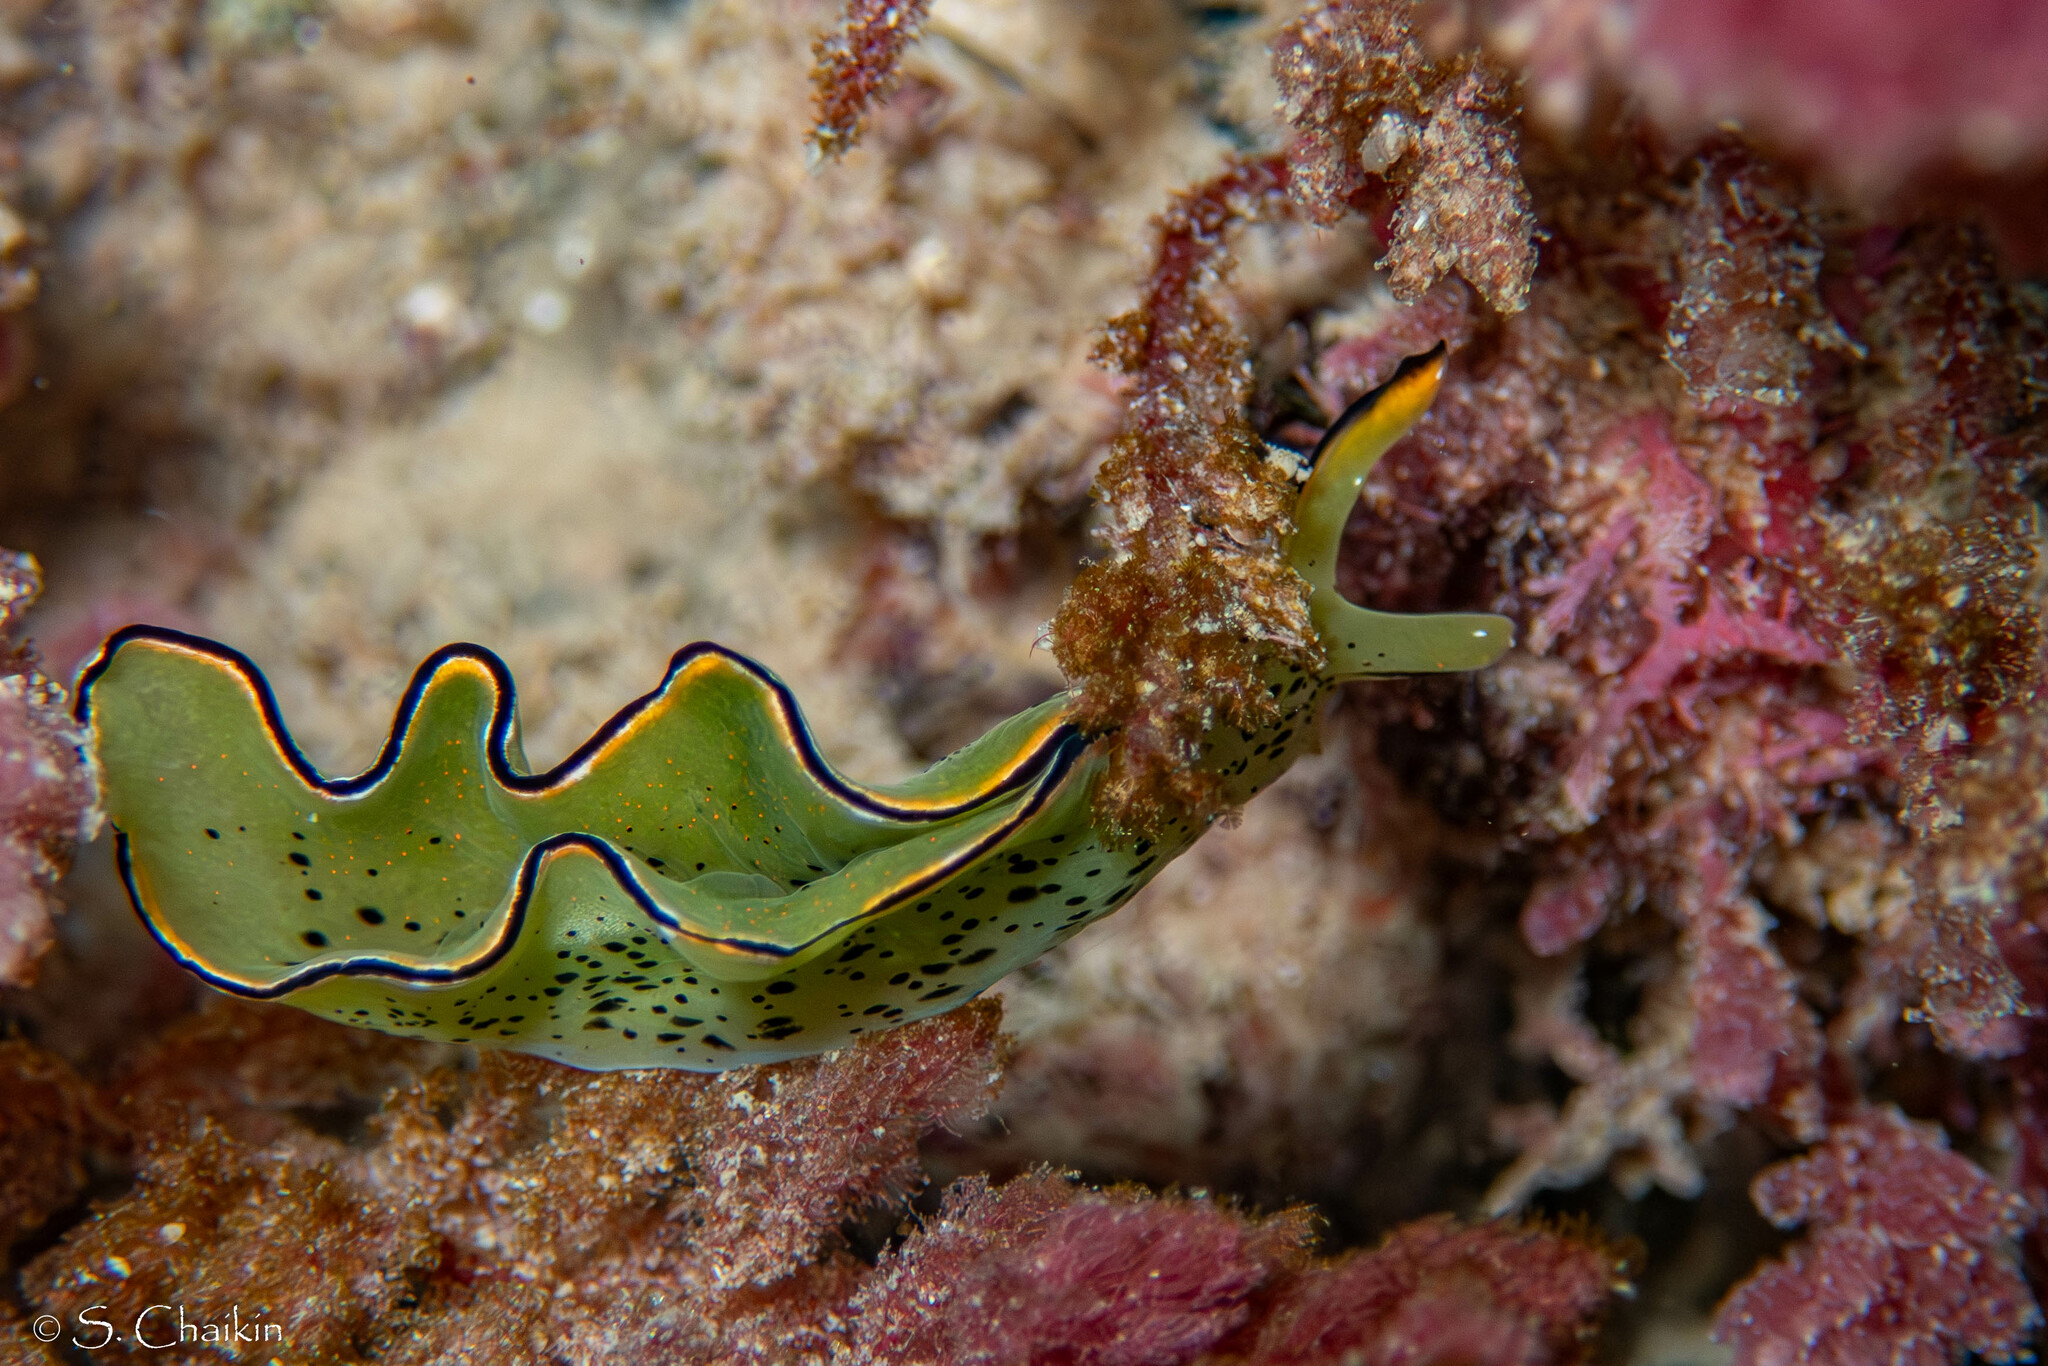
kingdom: Animalia
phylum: Mollusca
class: Gastropoda
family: Plakobranchidae
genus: Elysia
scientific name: Elysia ornata
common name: Ornate elysia
